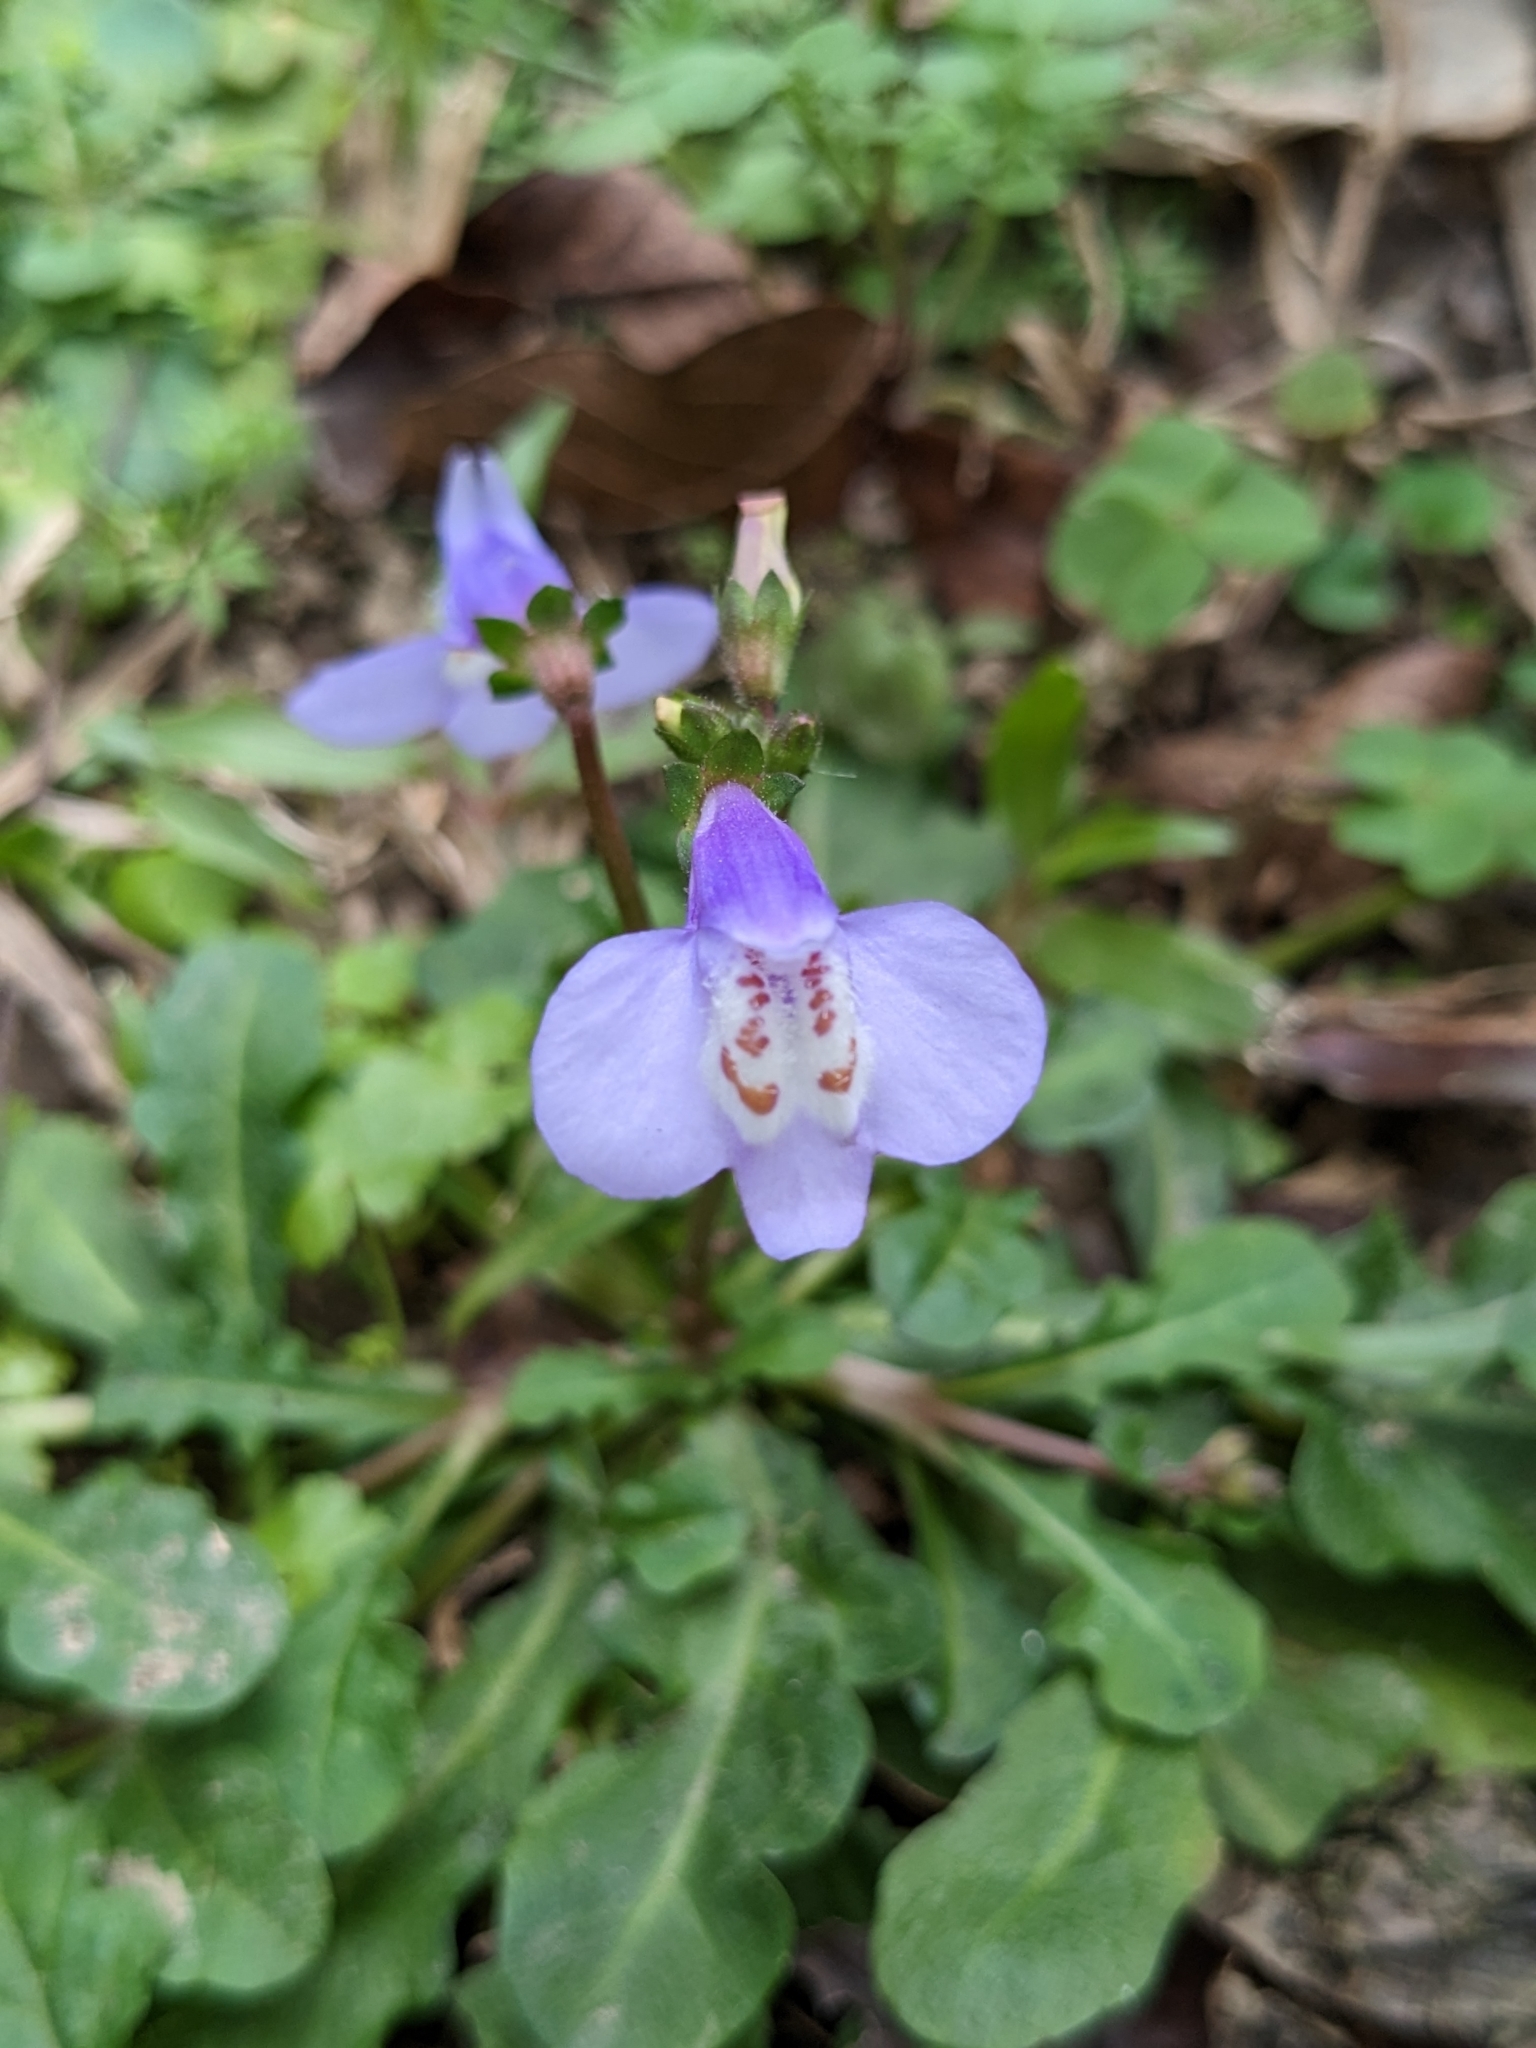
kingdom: Plantae
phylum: Tracheophyta
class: Magnoliopsida
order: Lamiales
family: Mazaceae
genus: Mazus
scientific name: Mazus fauriei
